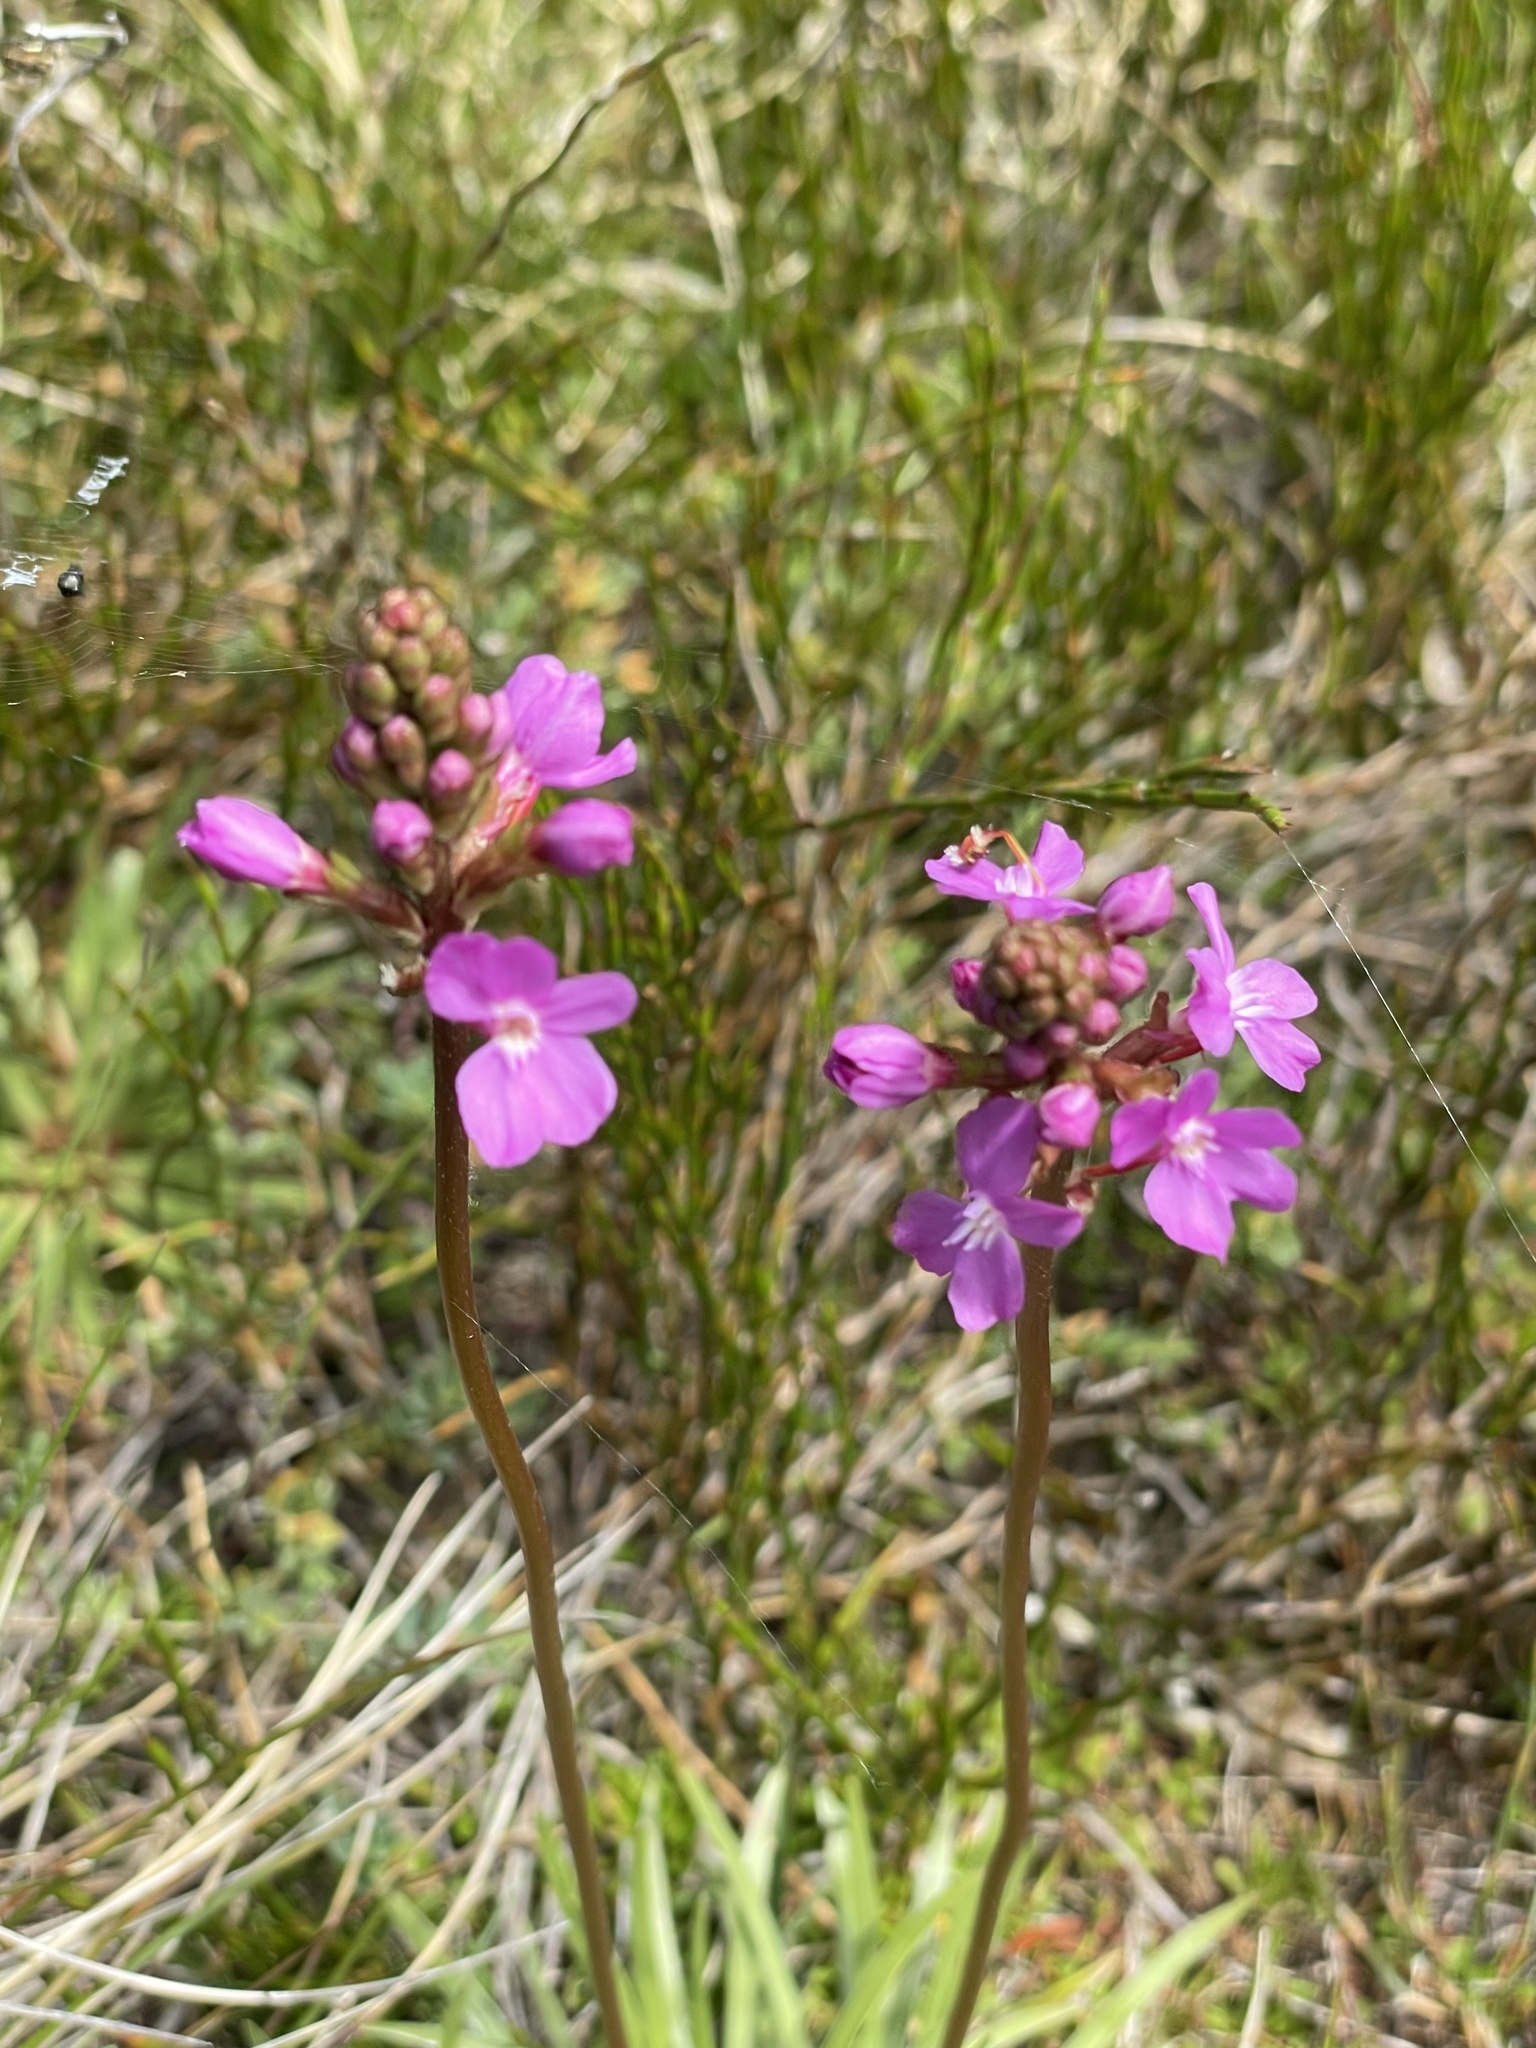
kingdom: Plantae
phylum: Tracheophyta
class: Magnoliopsida
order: Asterales
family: Stylidiaceae
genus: Stylidium
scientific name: Stylidium montanum
